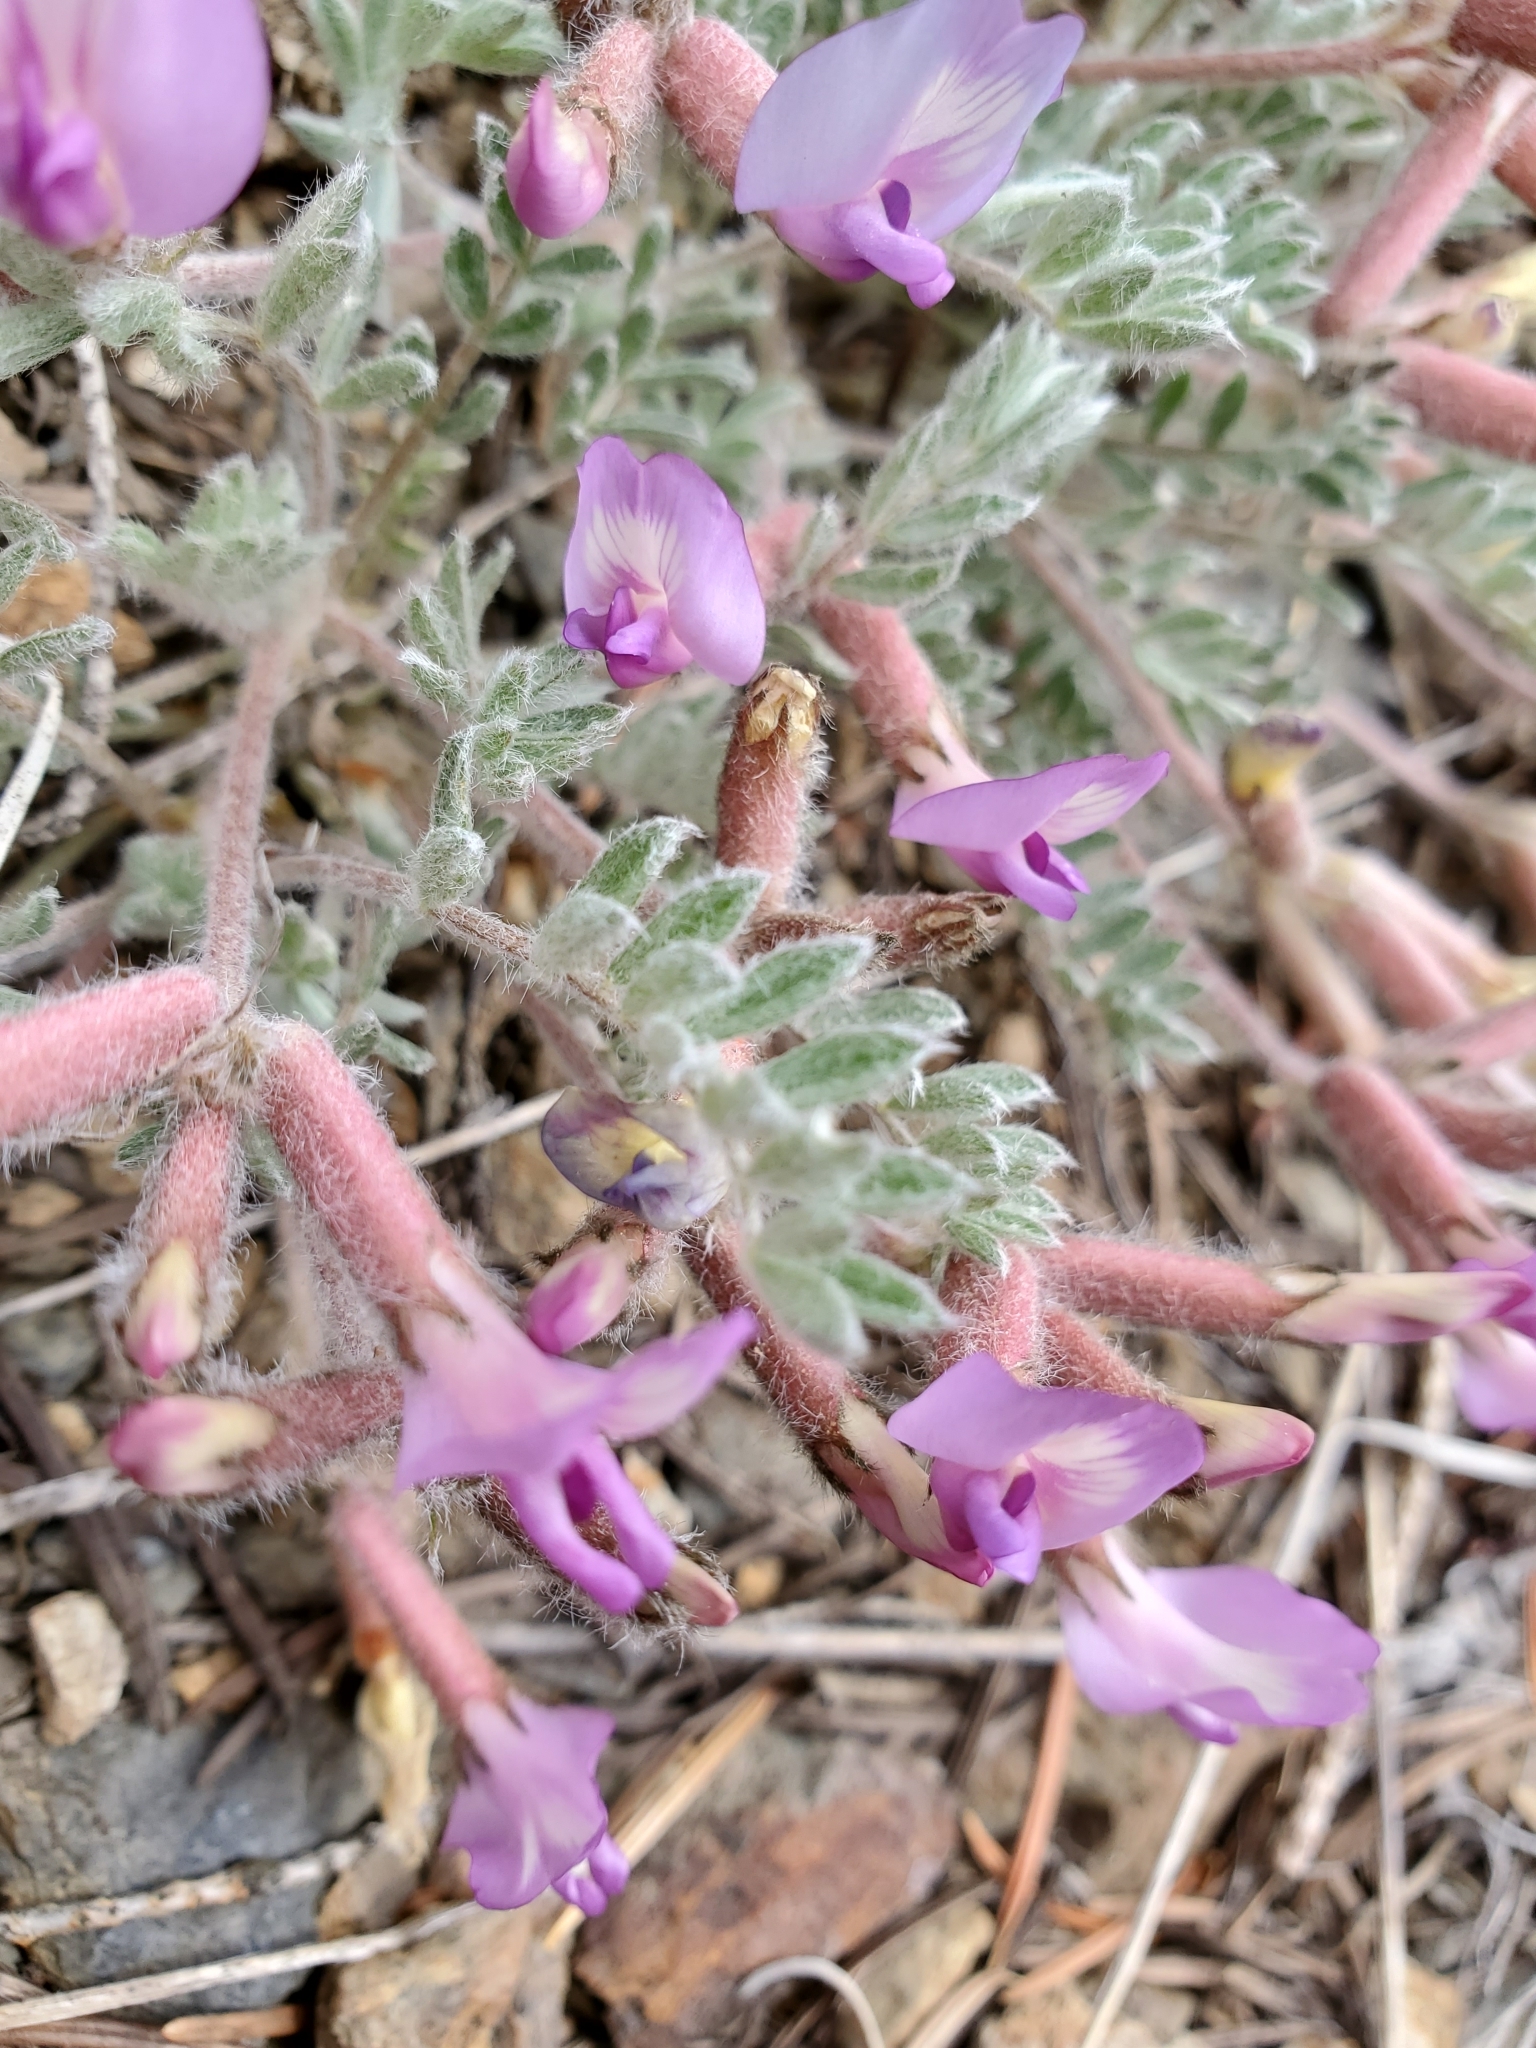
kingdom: Plantae
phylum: Tracheophyta
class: Magnoliopsida
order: Fabales
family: Fabaceae
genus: Astragalus
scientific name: Astragalus purshii
